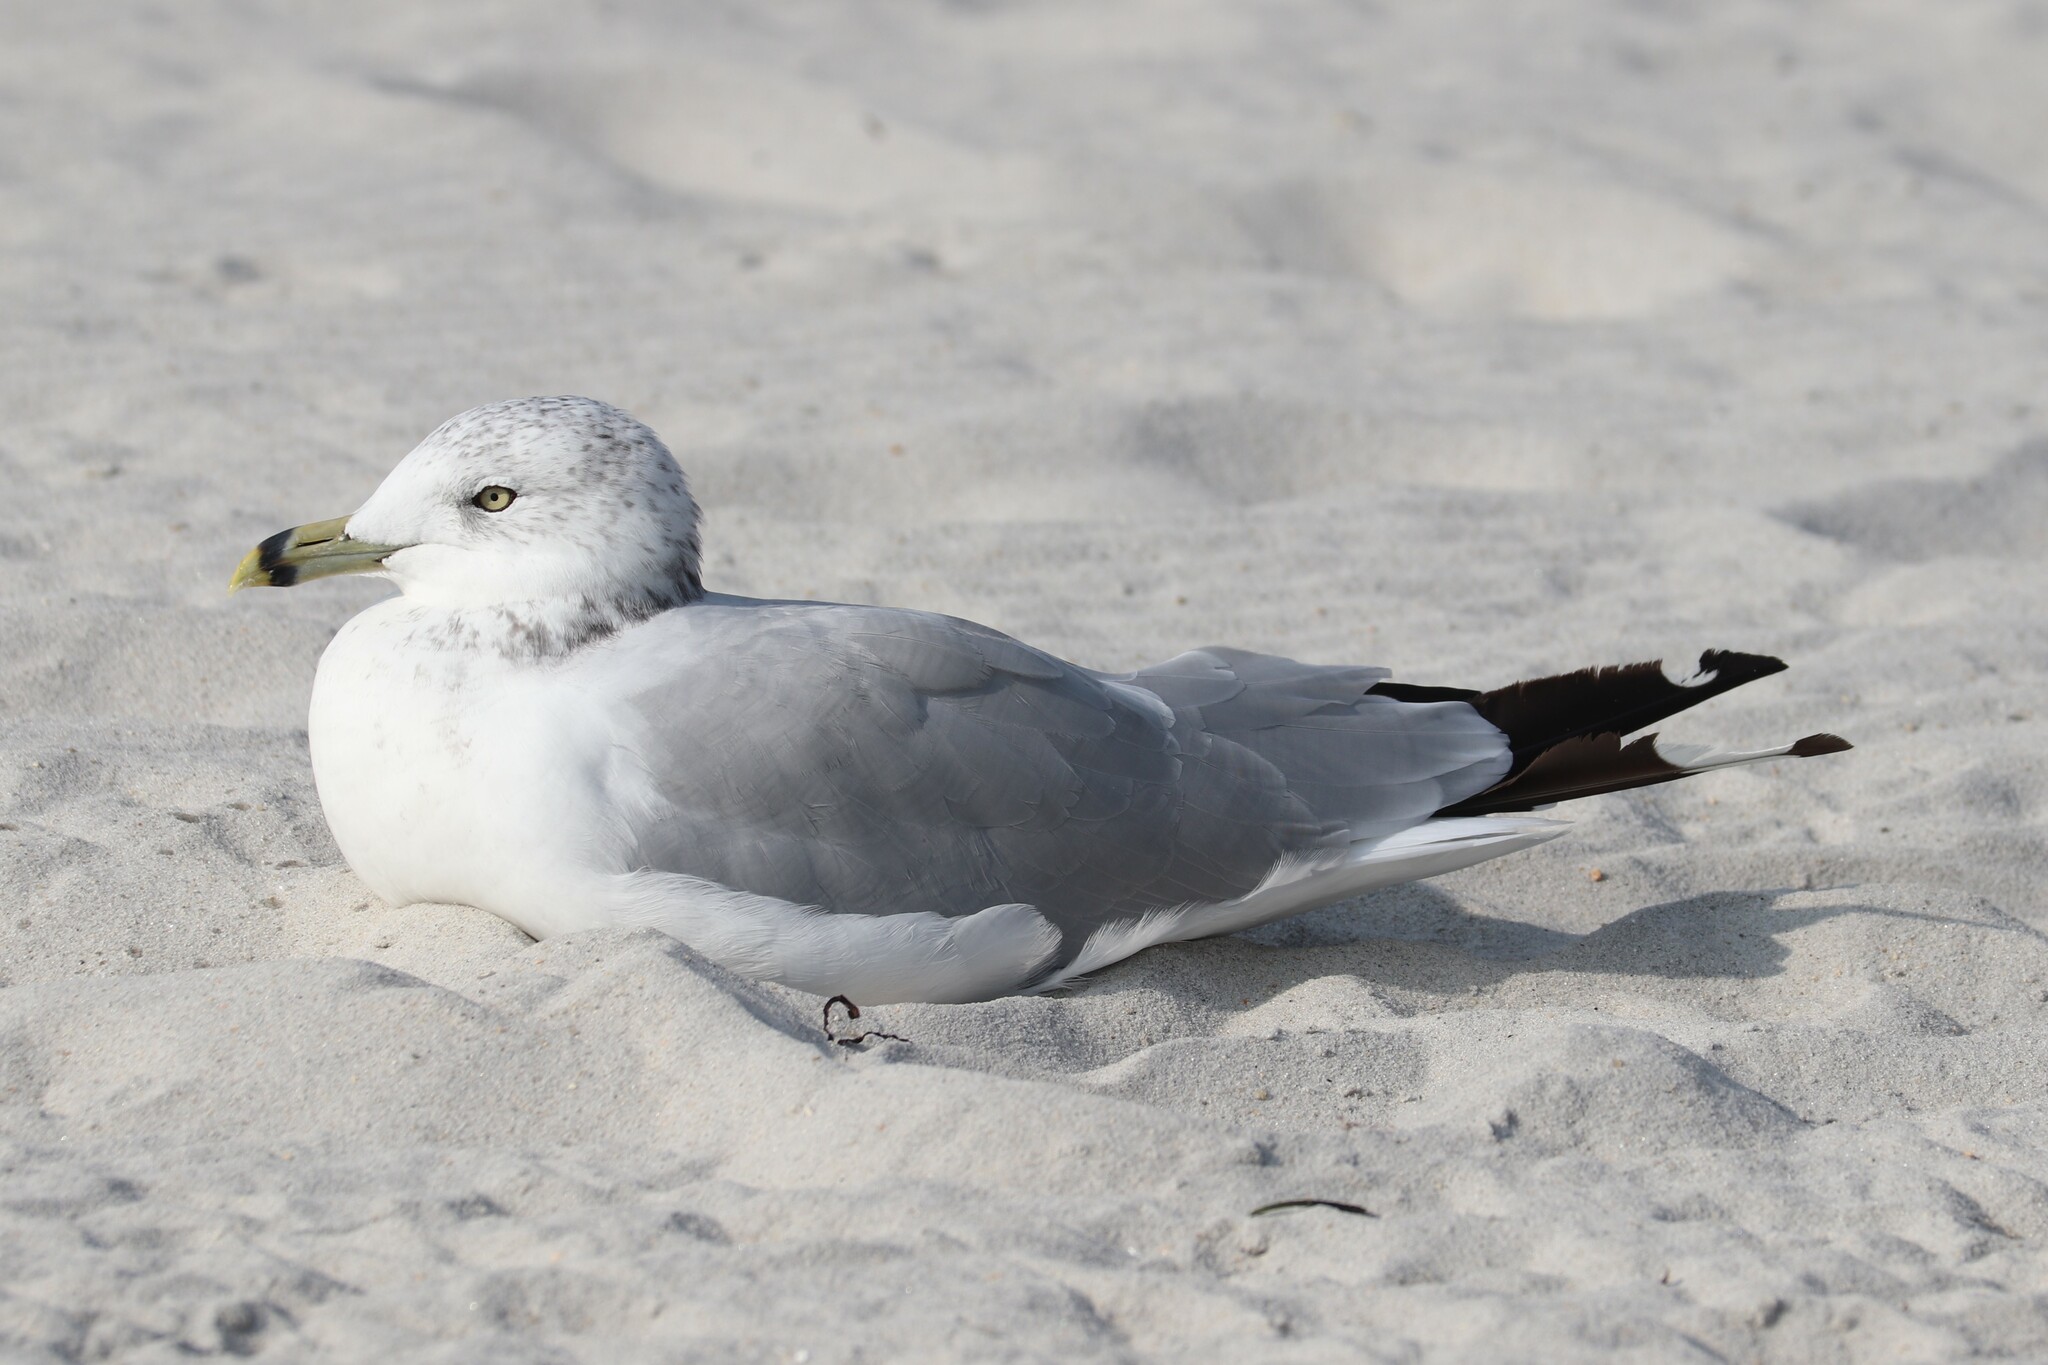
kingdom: Animalia
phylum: Chordata
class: Aves
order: Charadriiformes
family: Laridae
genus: Larus
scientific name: Larus delawarensis
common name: Ring-billed gull
